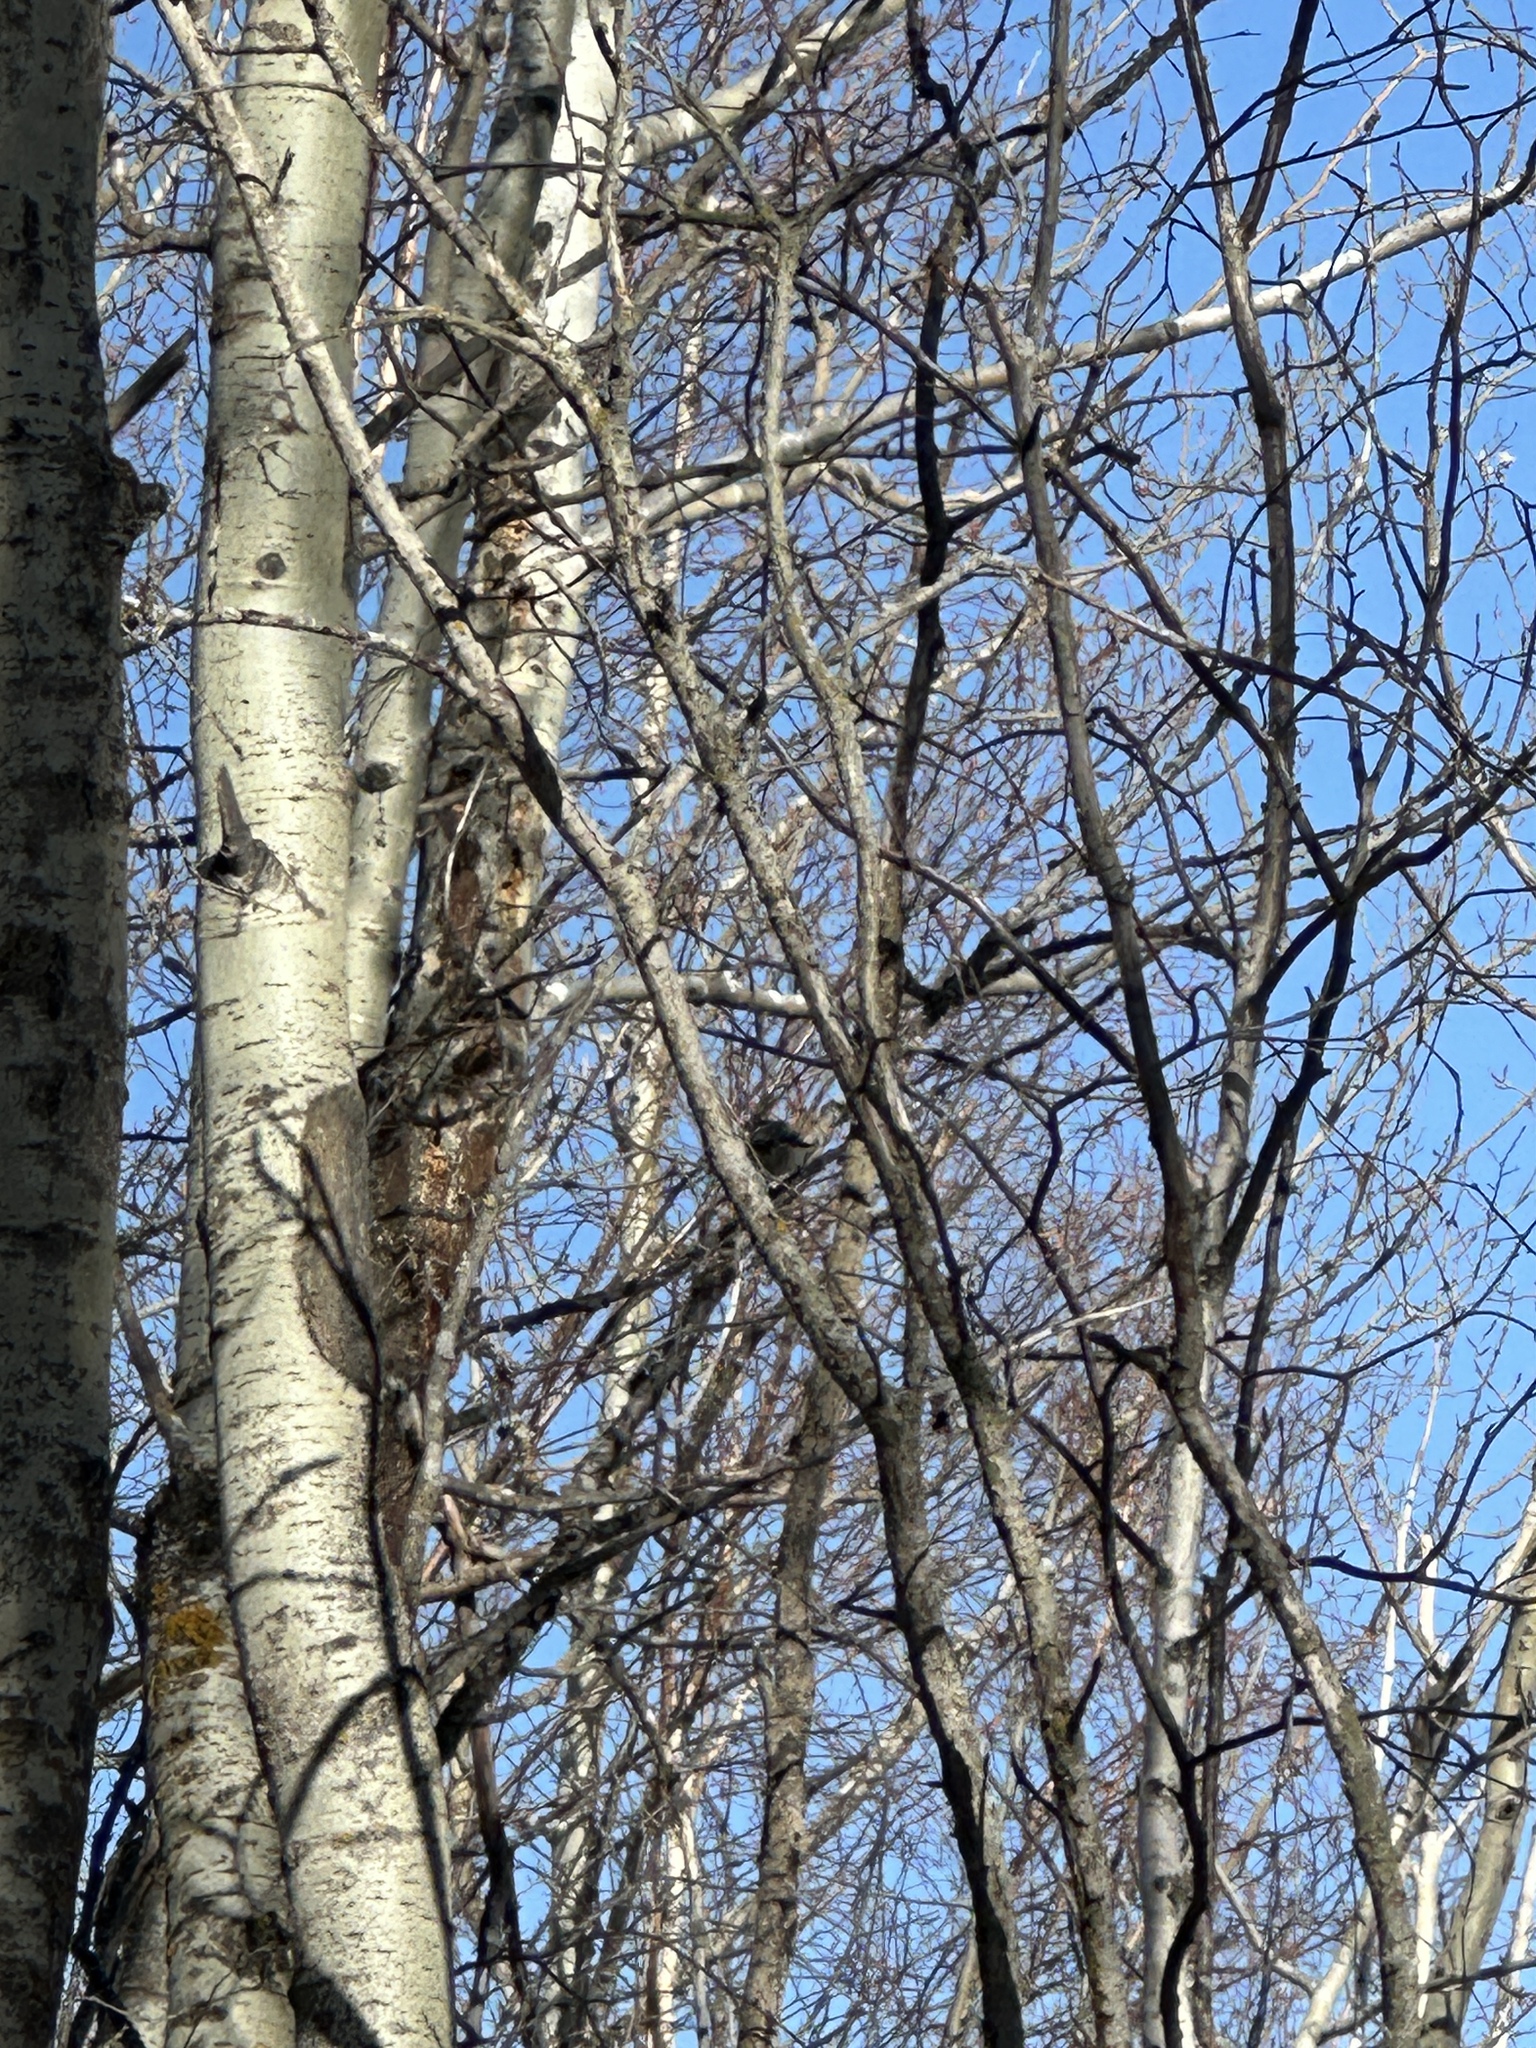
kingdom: Animalia
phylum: Chordata
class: Aves
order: Passeriformes
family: Paridae
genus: Poecile
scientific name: Poecile atricapillus
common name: Black-capped chickadee
